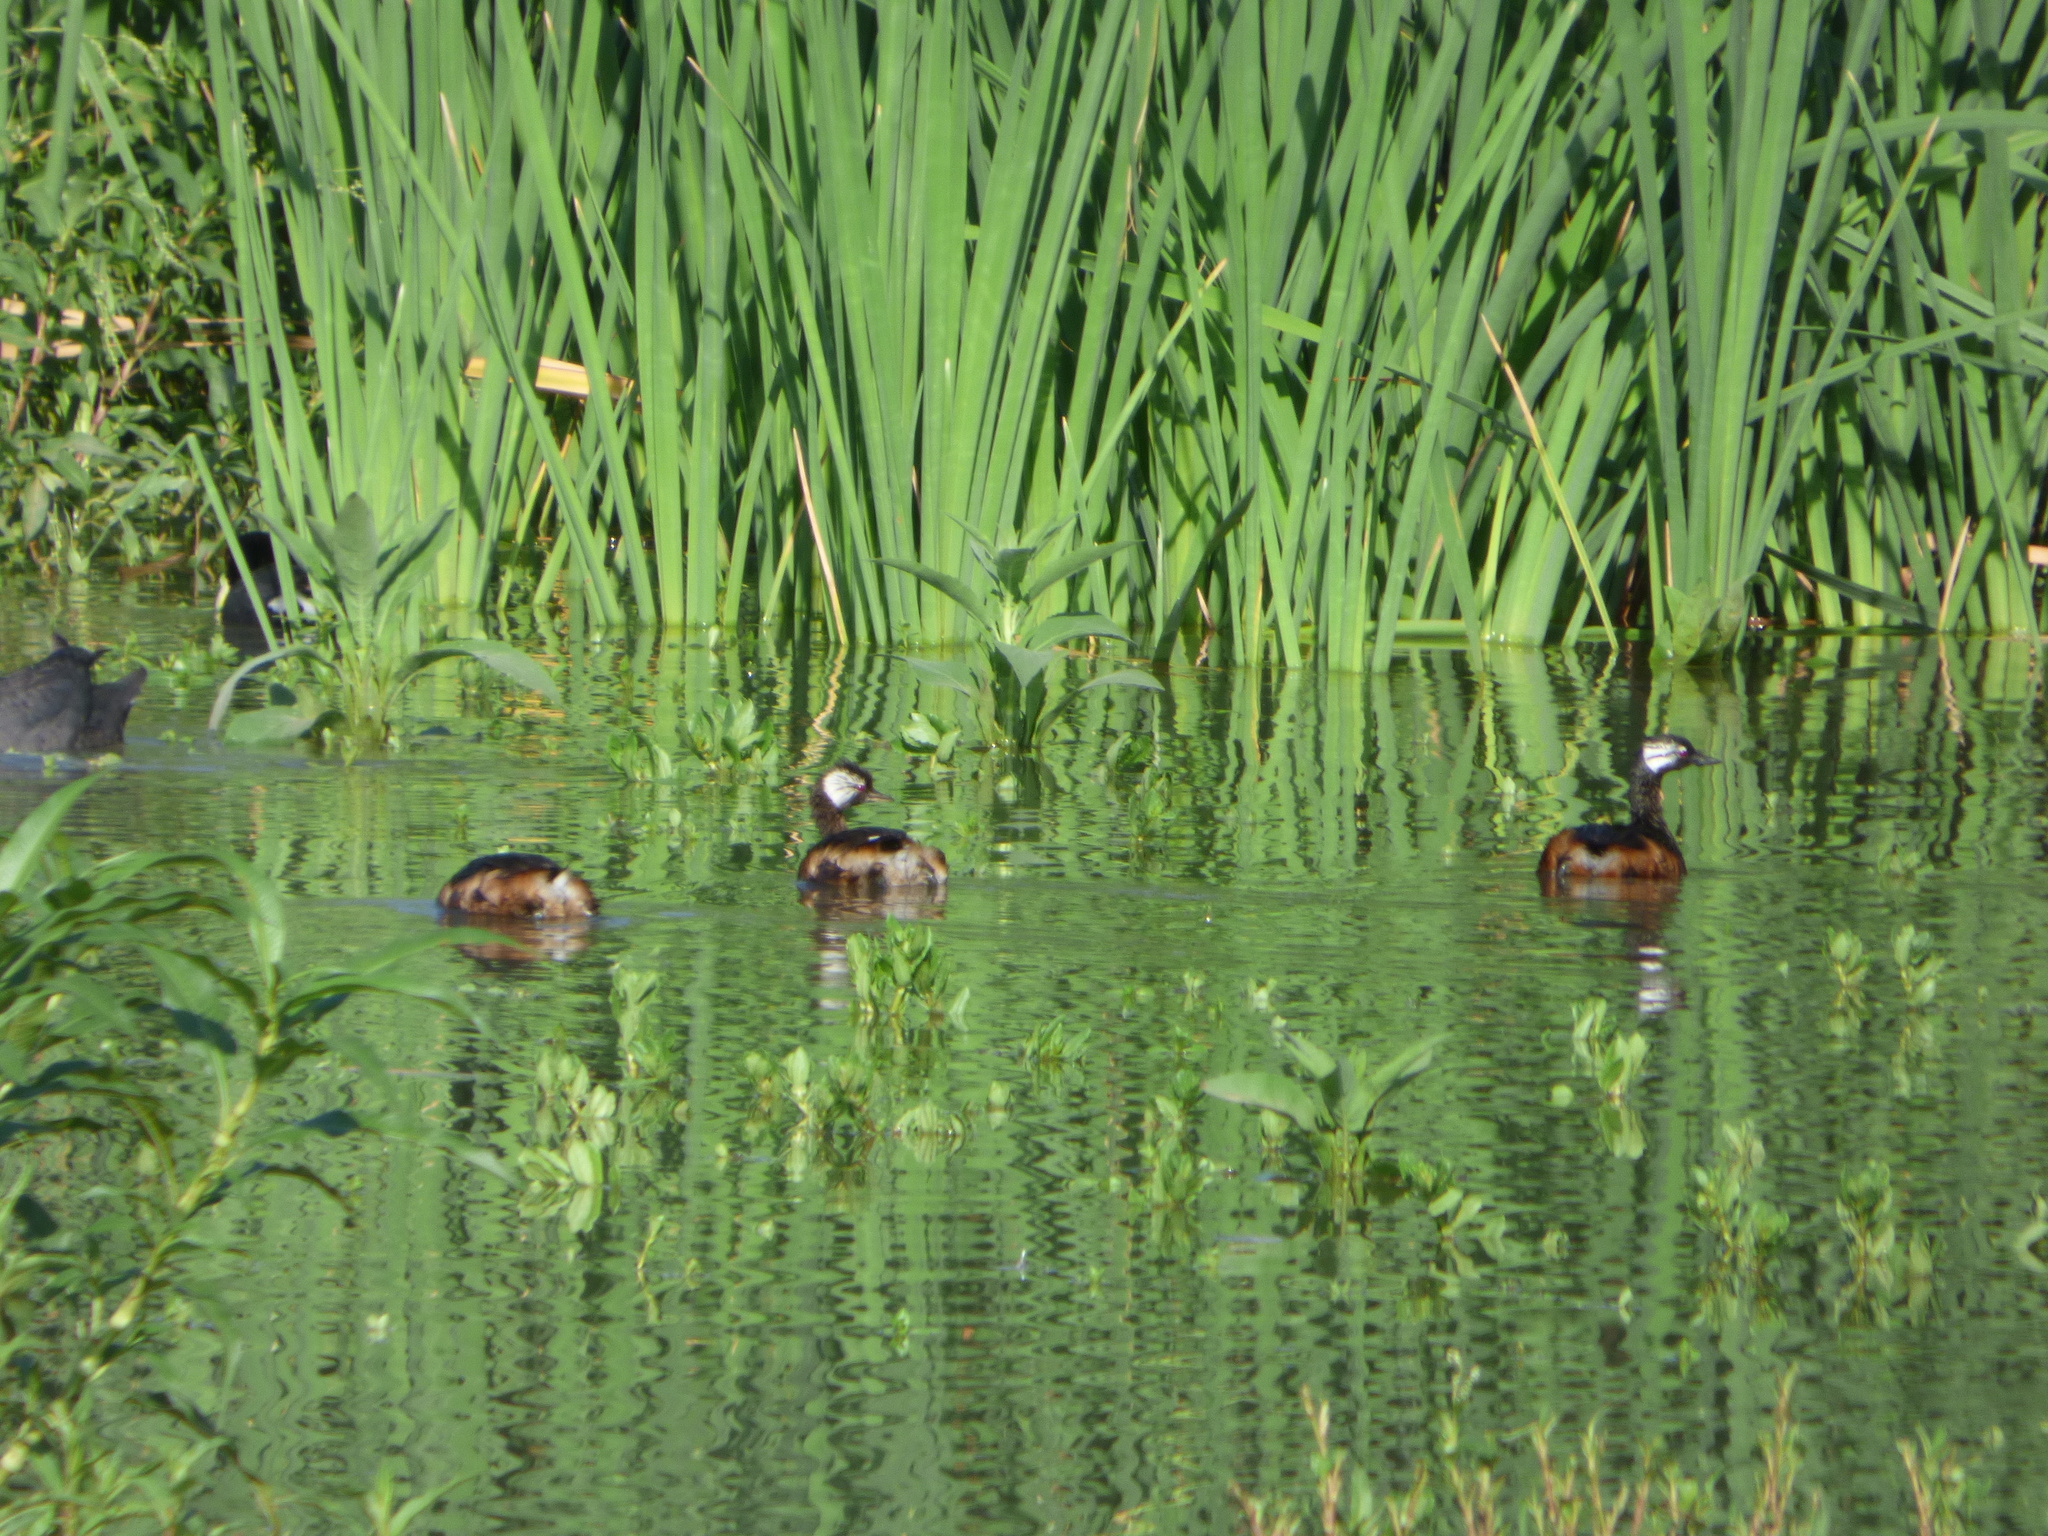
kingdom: Animalia
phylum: Chordata
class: Aves
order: Podicipediformes
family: Podicipedidae
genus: Rollandia
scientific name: Rollandia rolland
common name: White-tufted grebe
